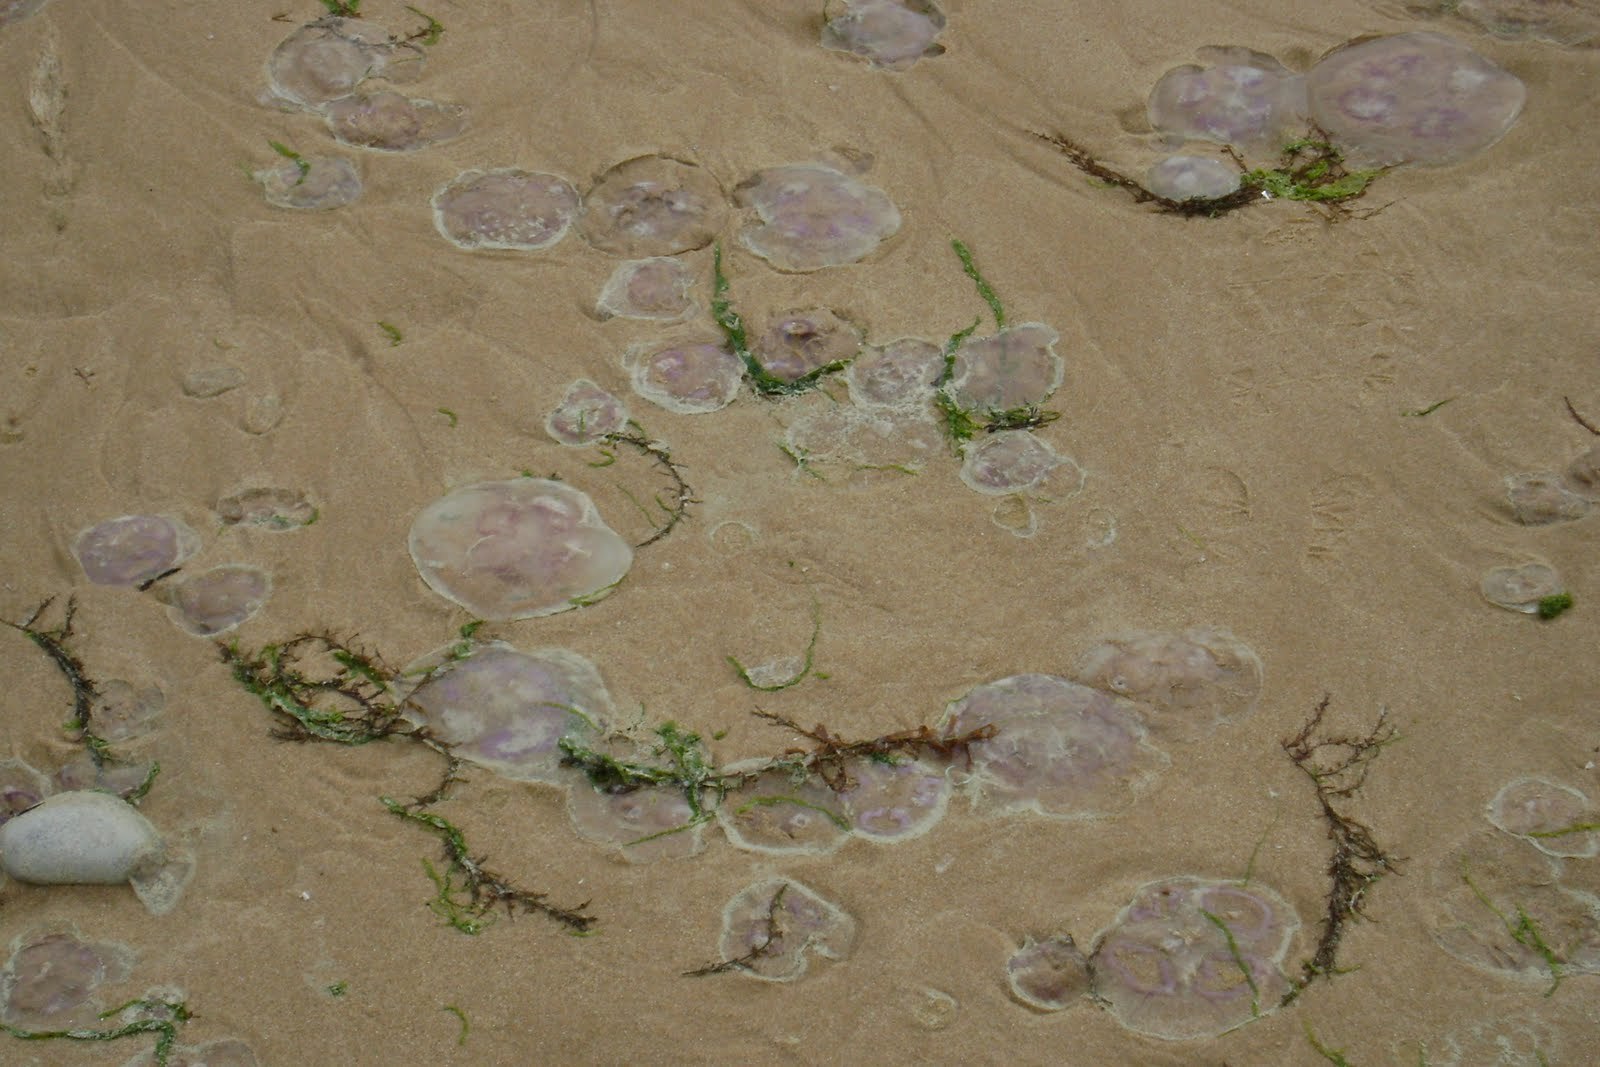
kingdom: Animalia
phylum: Cnidaria
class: Scyphozoa
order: Semaeostomeae
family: Ulmaridae
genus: Aurelia
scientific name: Aurelia aurita
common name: Moon jellyfish
